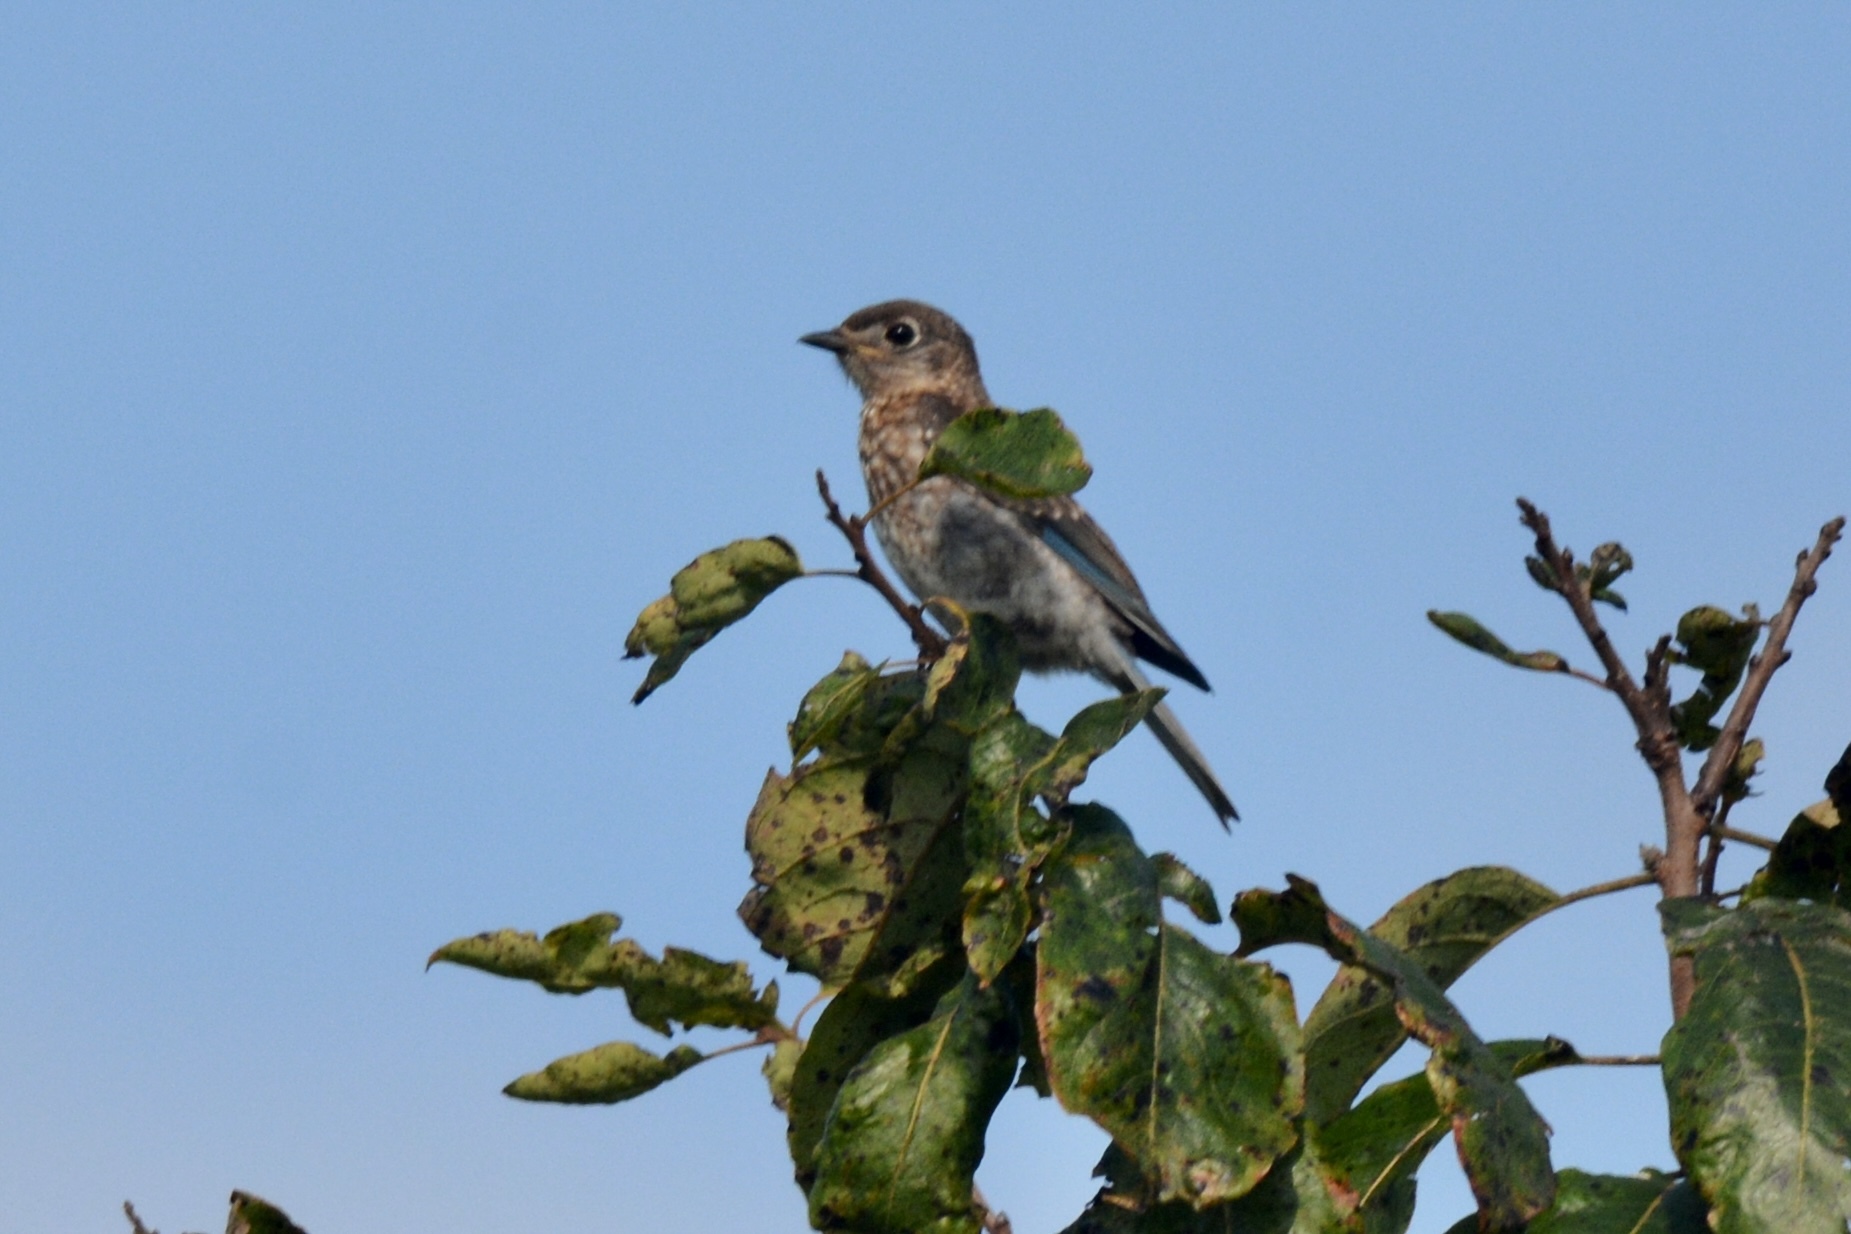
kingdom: Animalia
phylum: Chordata
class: Aves
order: Passeriformes
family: Turdidae
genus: Sialia
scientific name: Sialia sialis
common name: Eastern bluebird
